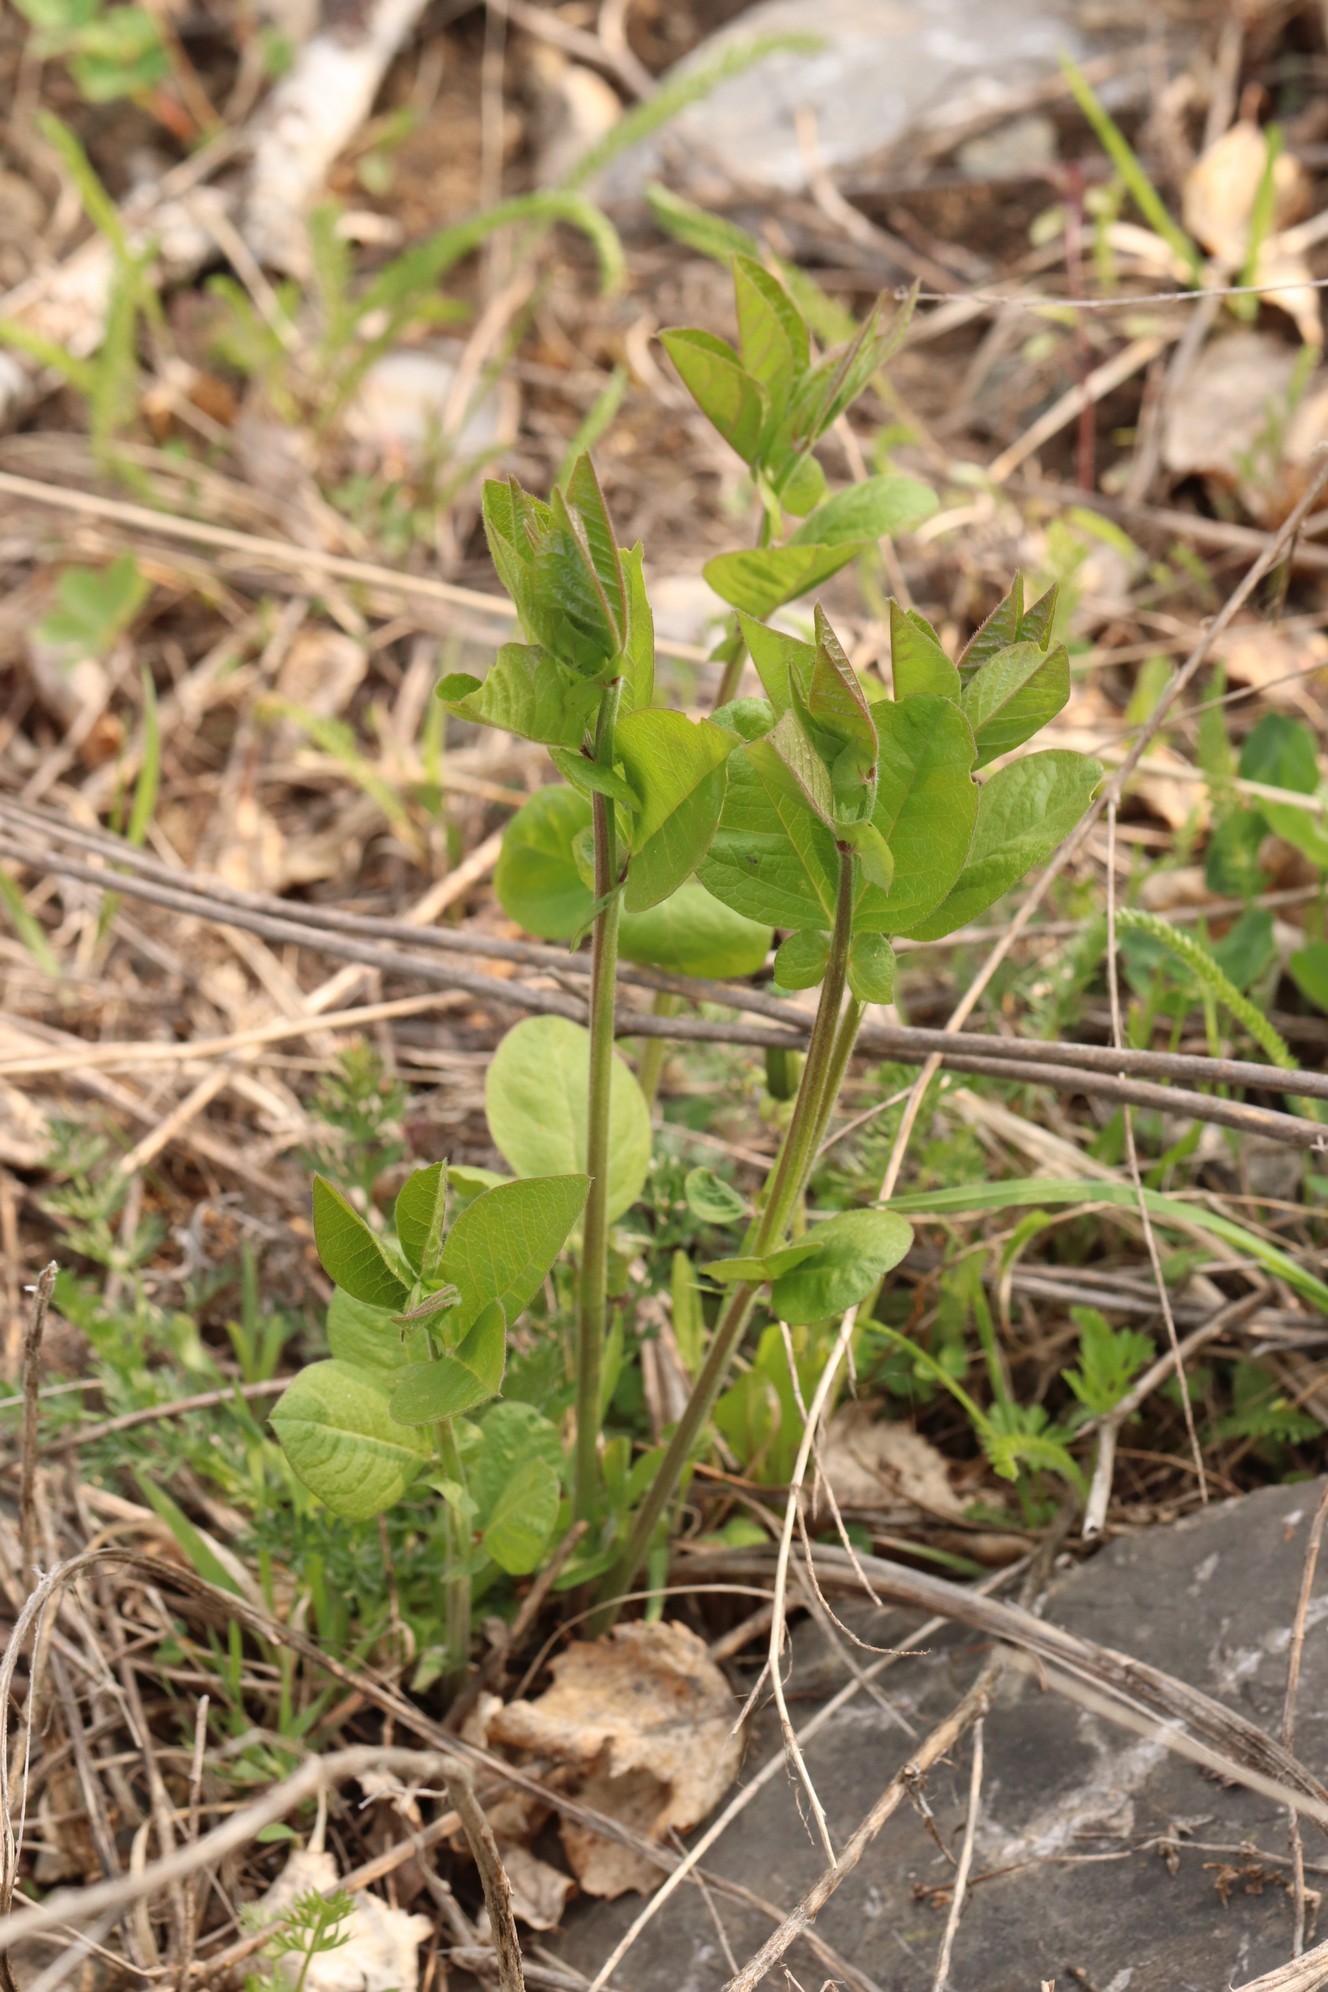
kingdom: Plantae
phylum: Tracheophyta
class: Magnoliopsida
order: Fabales
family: Fabaceae
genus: Vicia
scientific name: Vicia unijuga
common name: Two-leaf vetch
